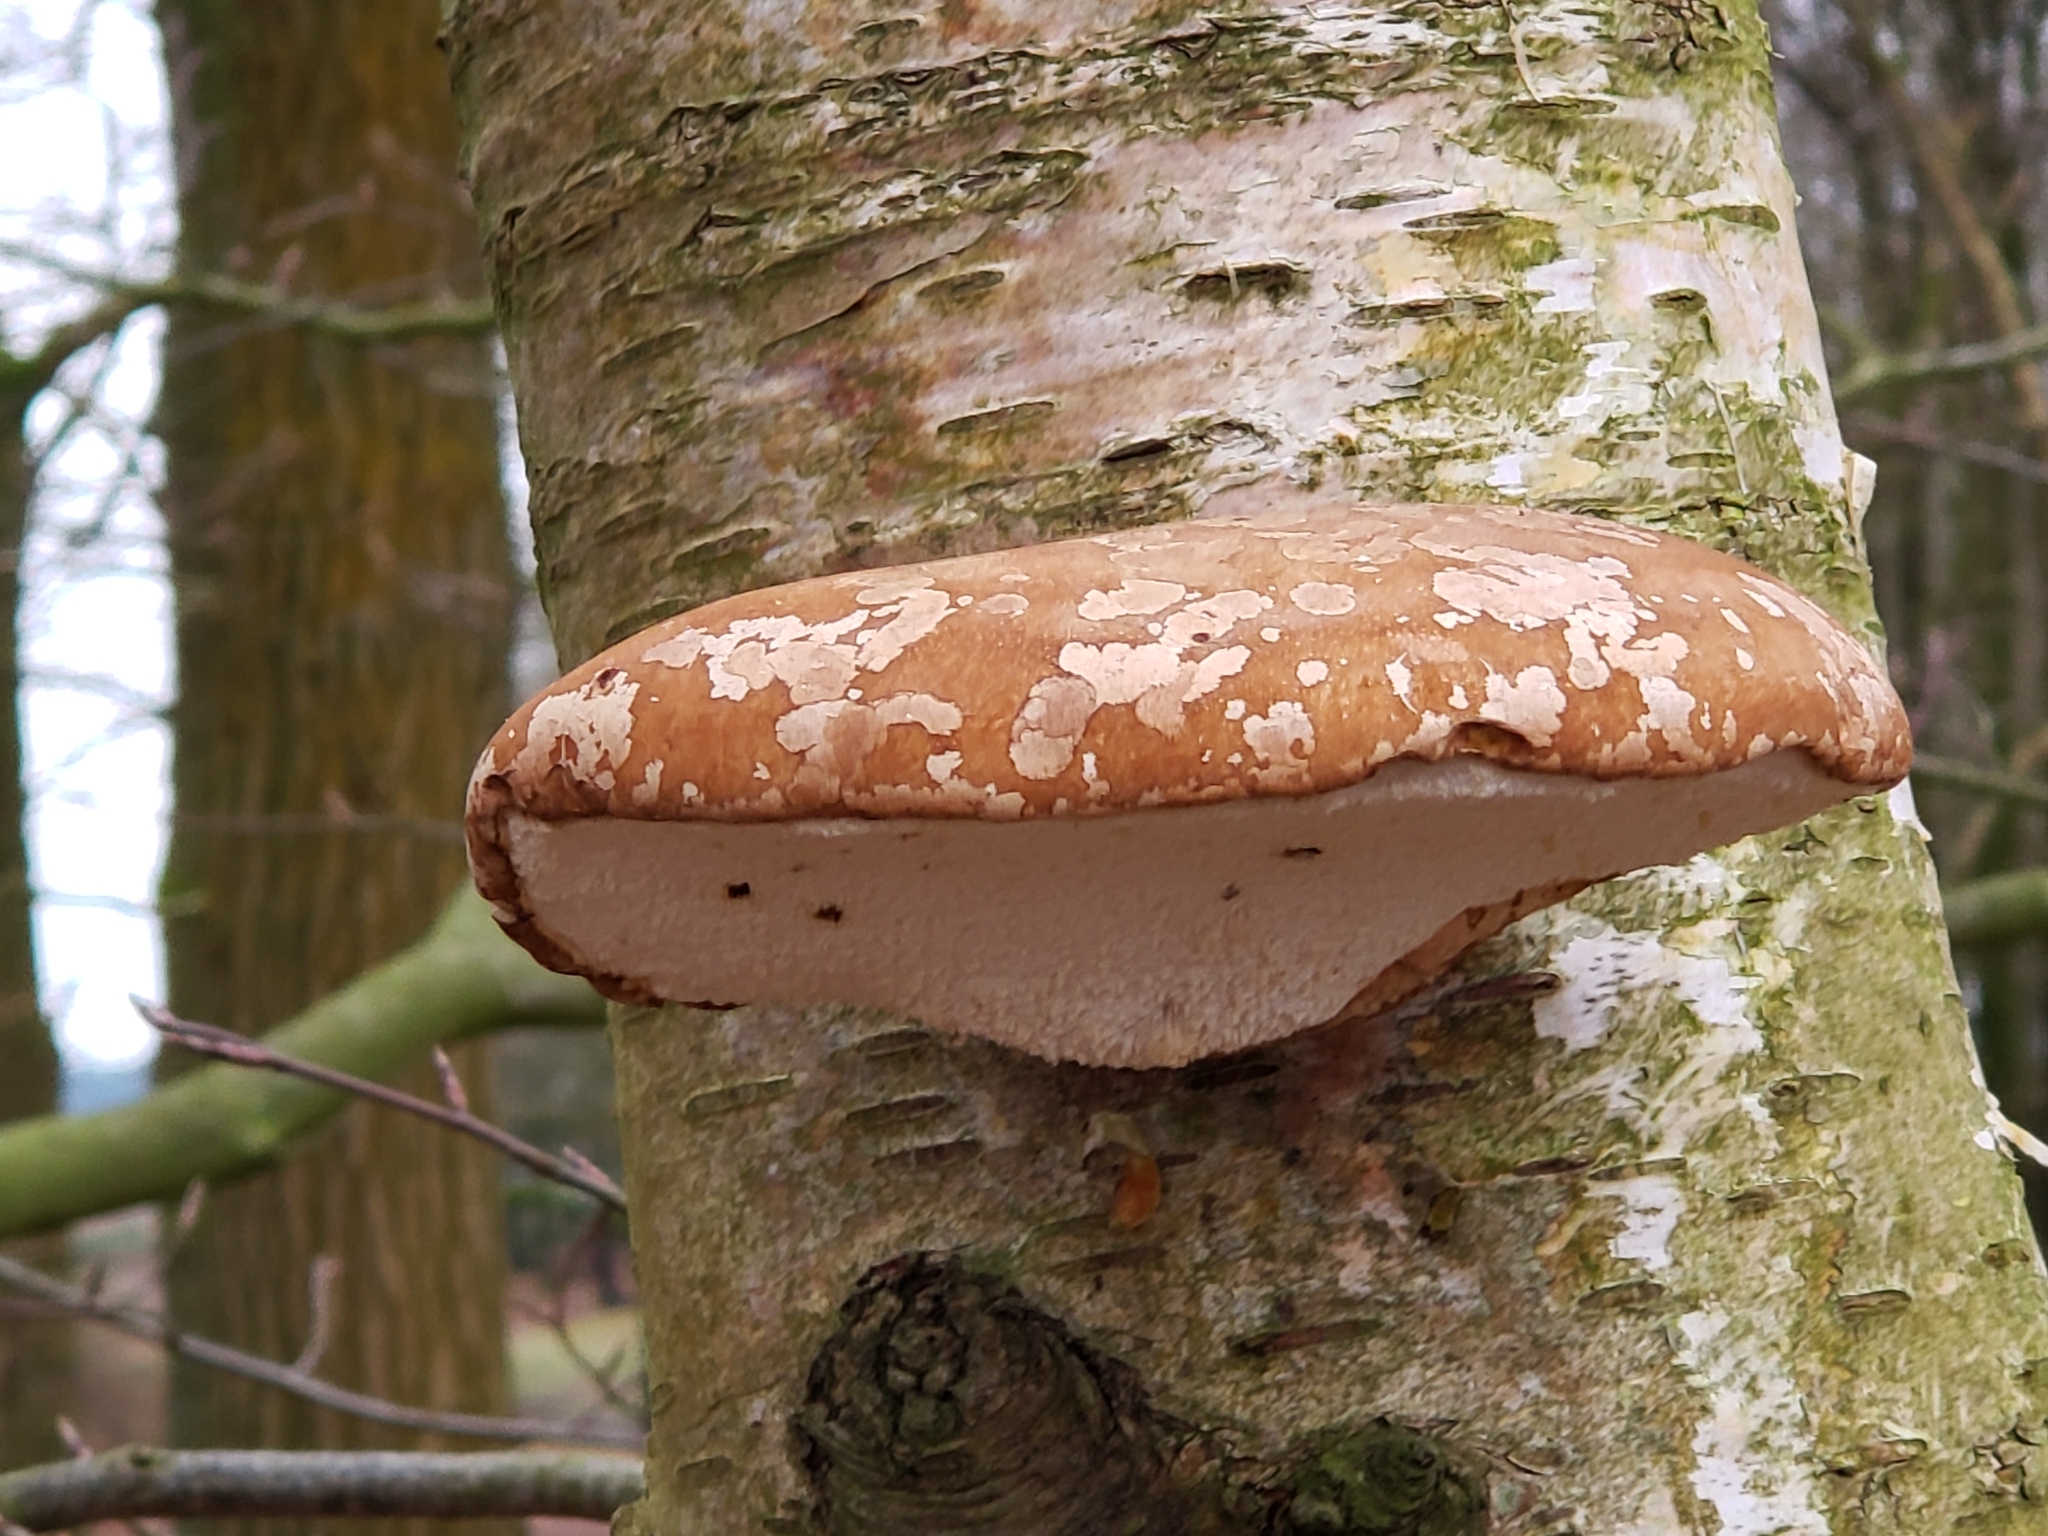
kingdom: Fungi
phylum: Basidiomycota
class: Agaricomycetes
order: Polyporales
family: Fomitopsidaceae
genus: Fomitopsis
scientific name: Fomitopsis betulina
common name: Birch polypore
